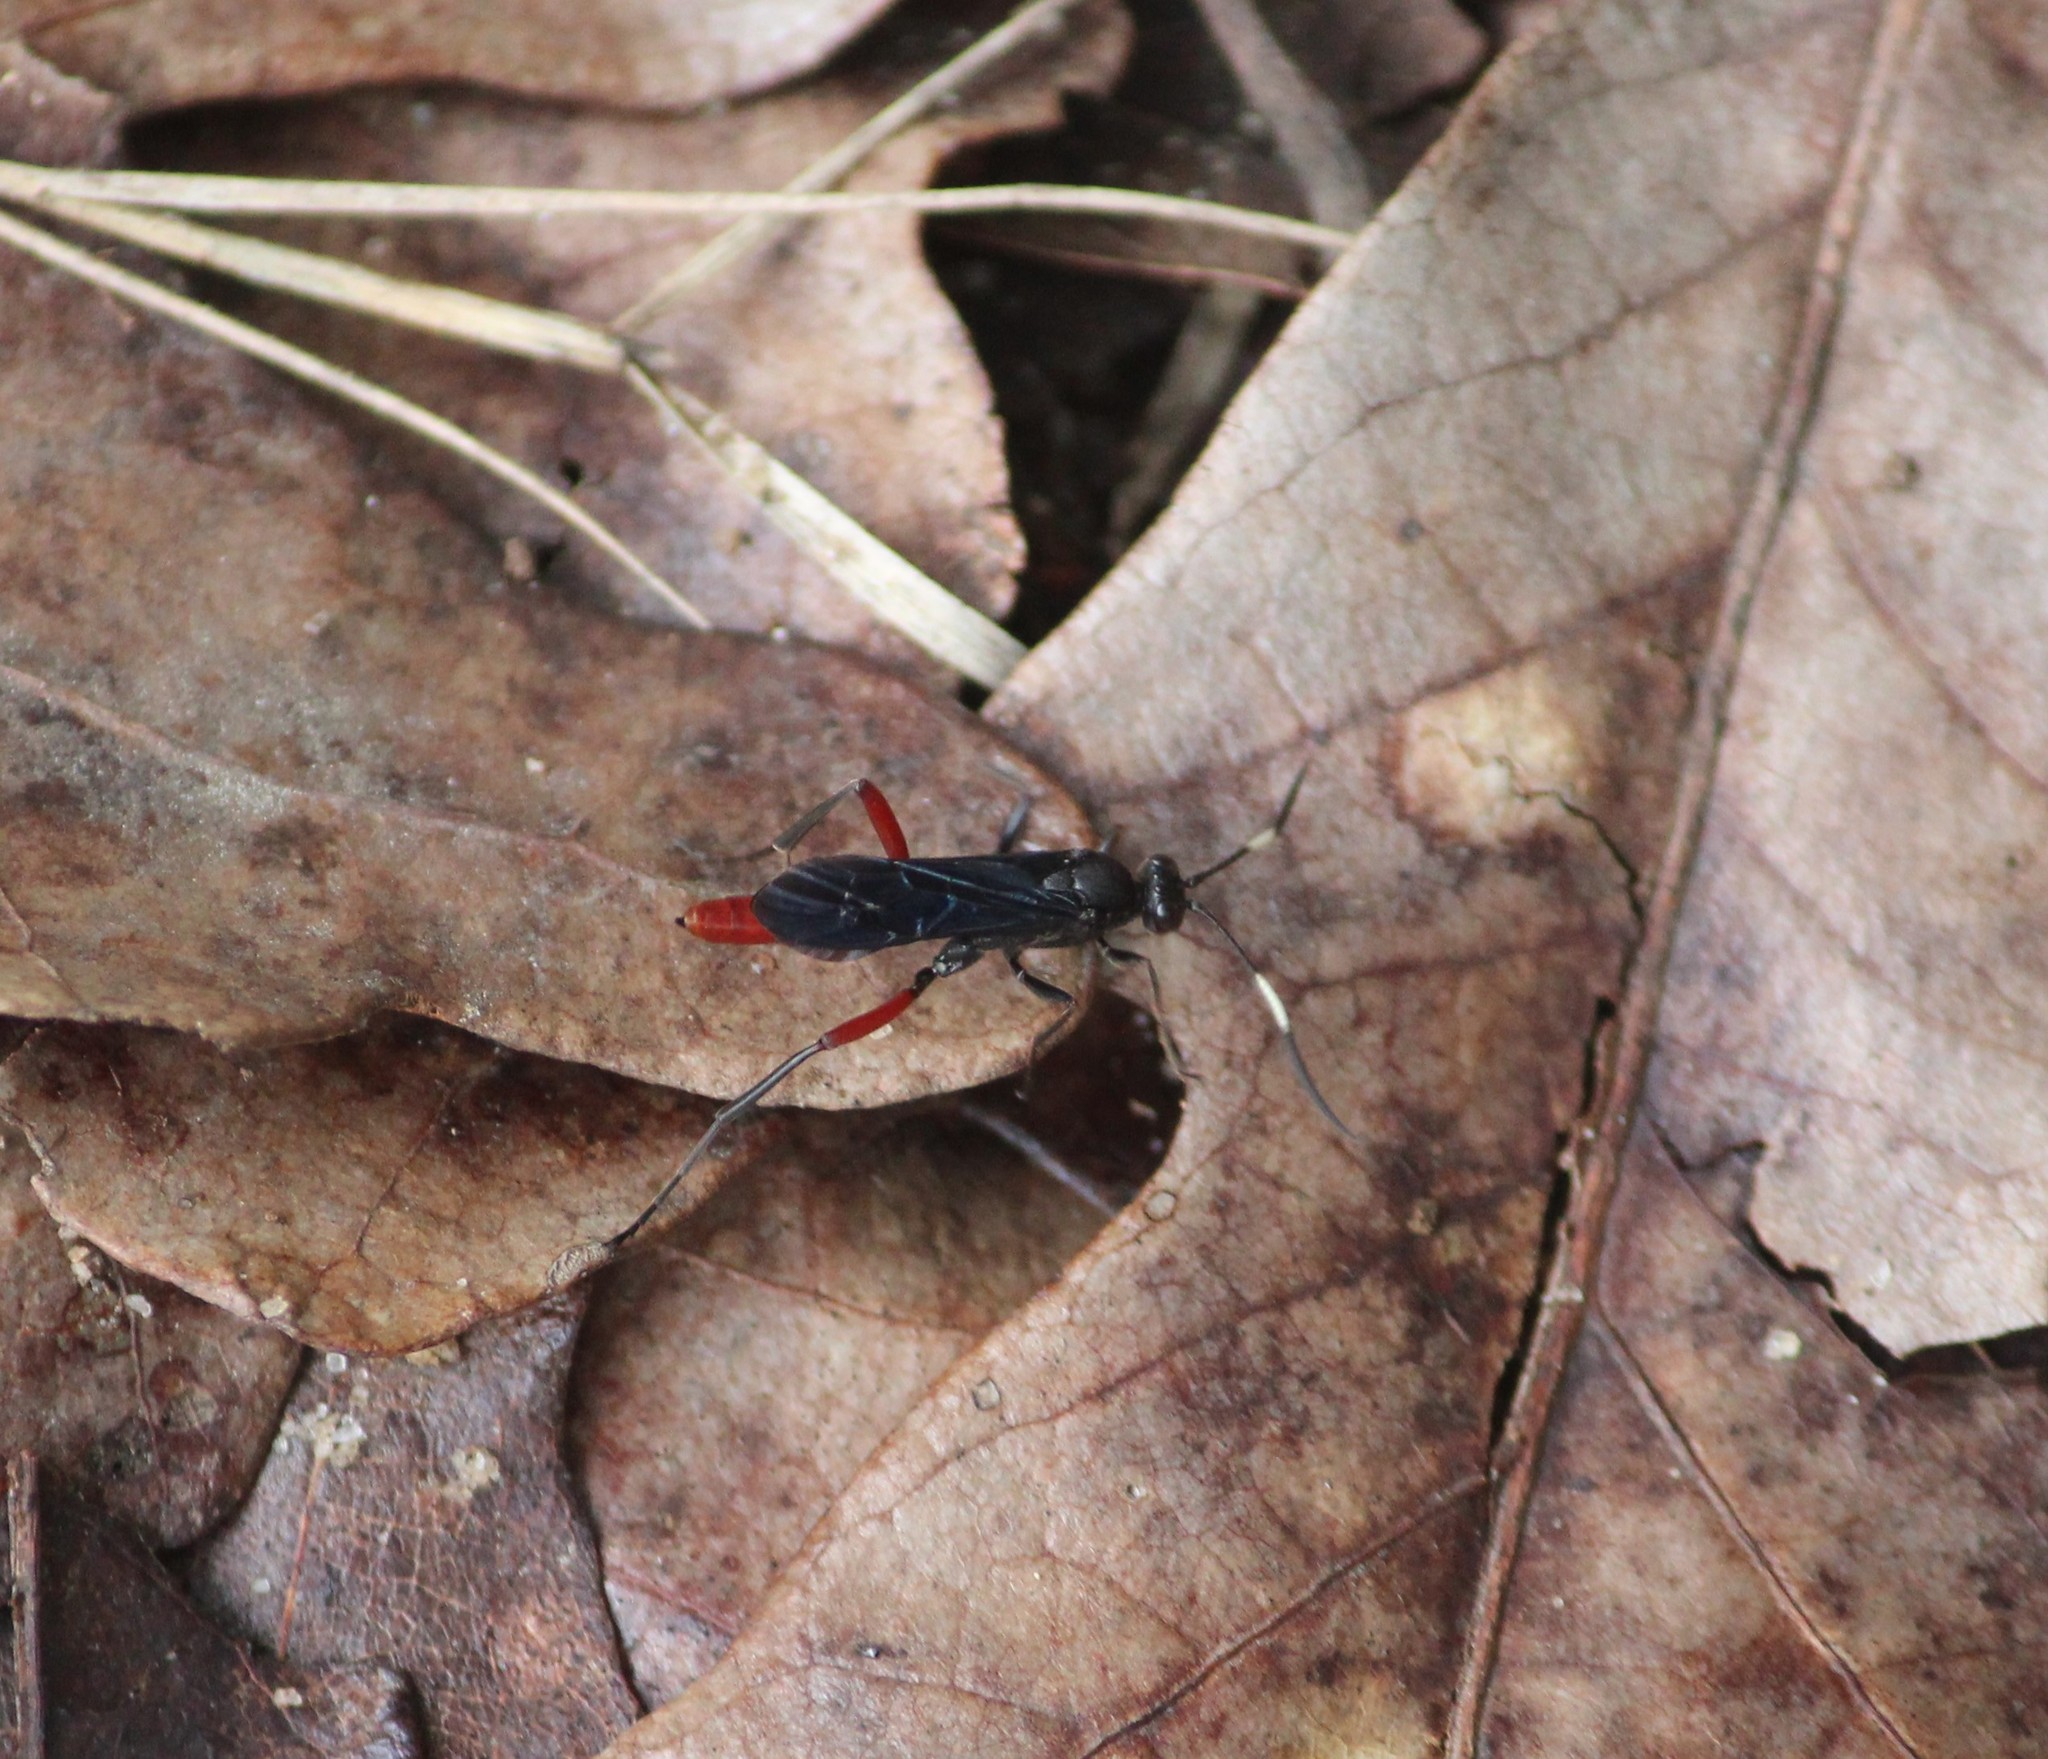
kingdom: Animalia
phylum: Arthropoda
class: Insecta
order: Hymenoptera
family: Ichneumonidae
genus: Limonethe
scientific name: Limonethe maurator
